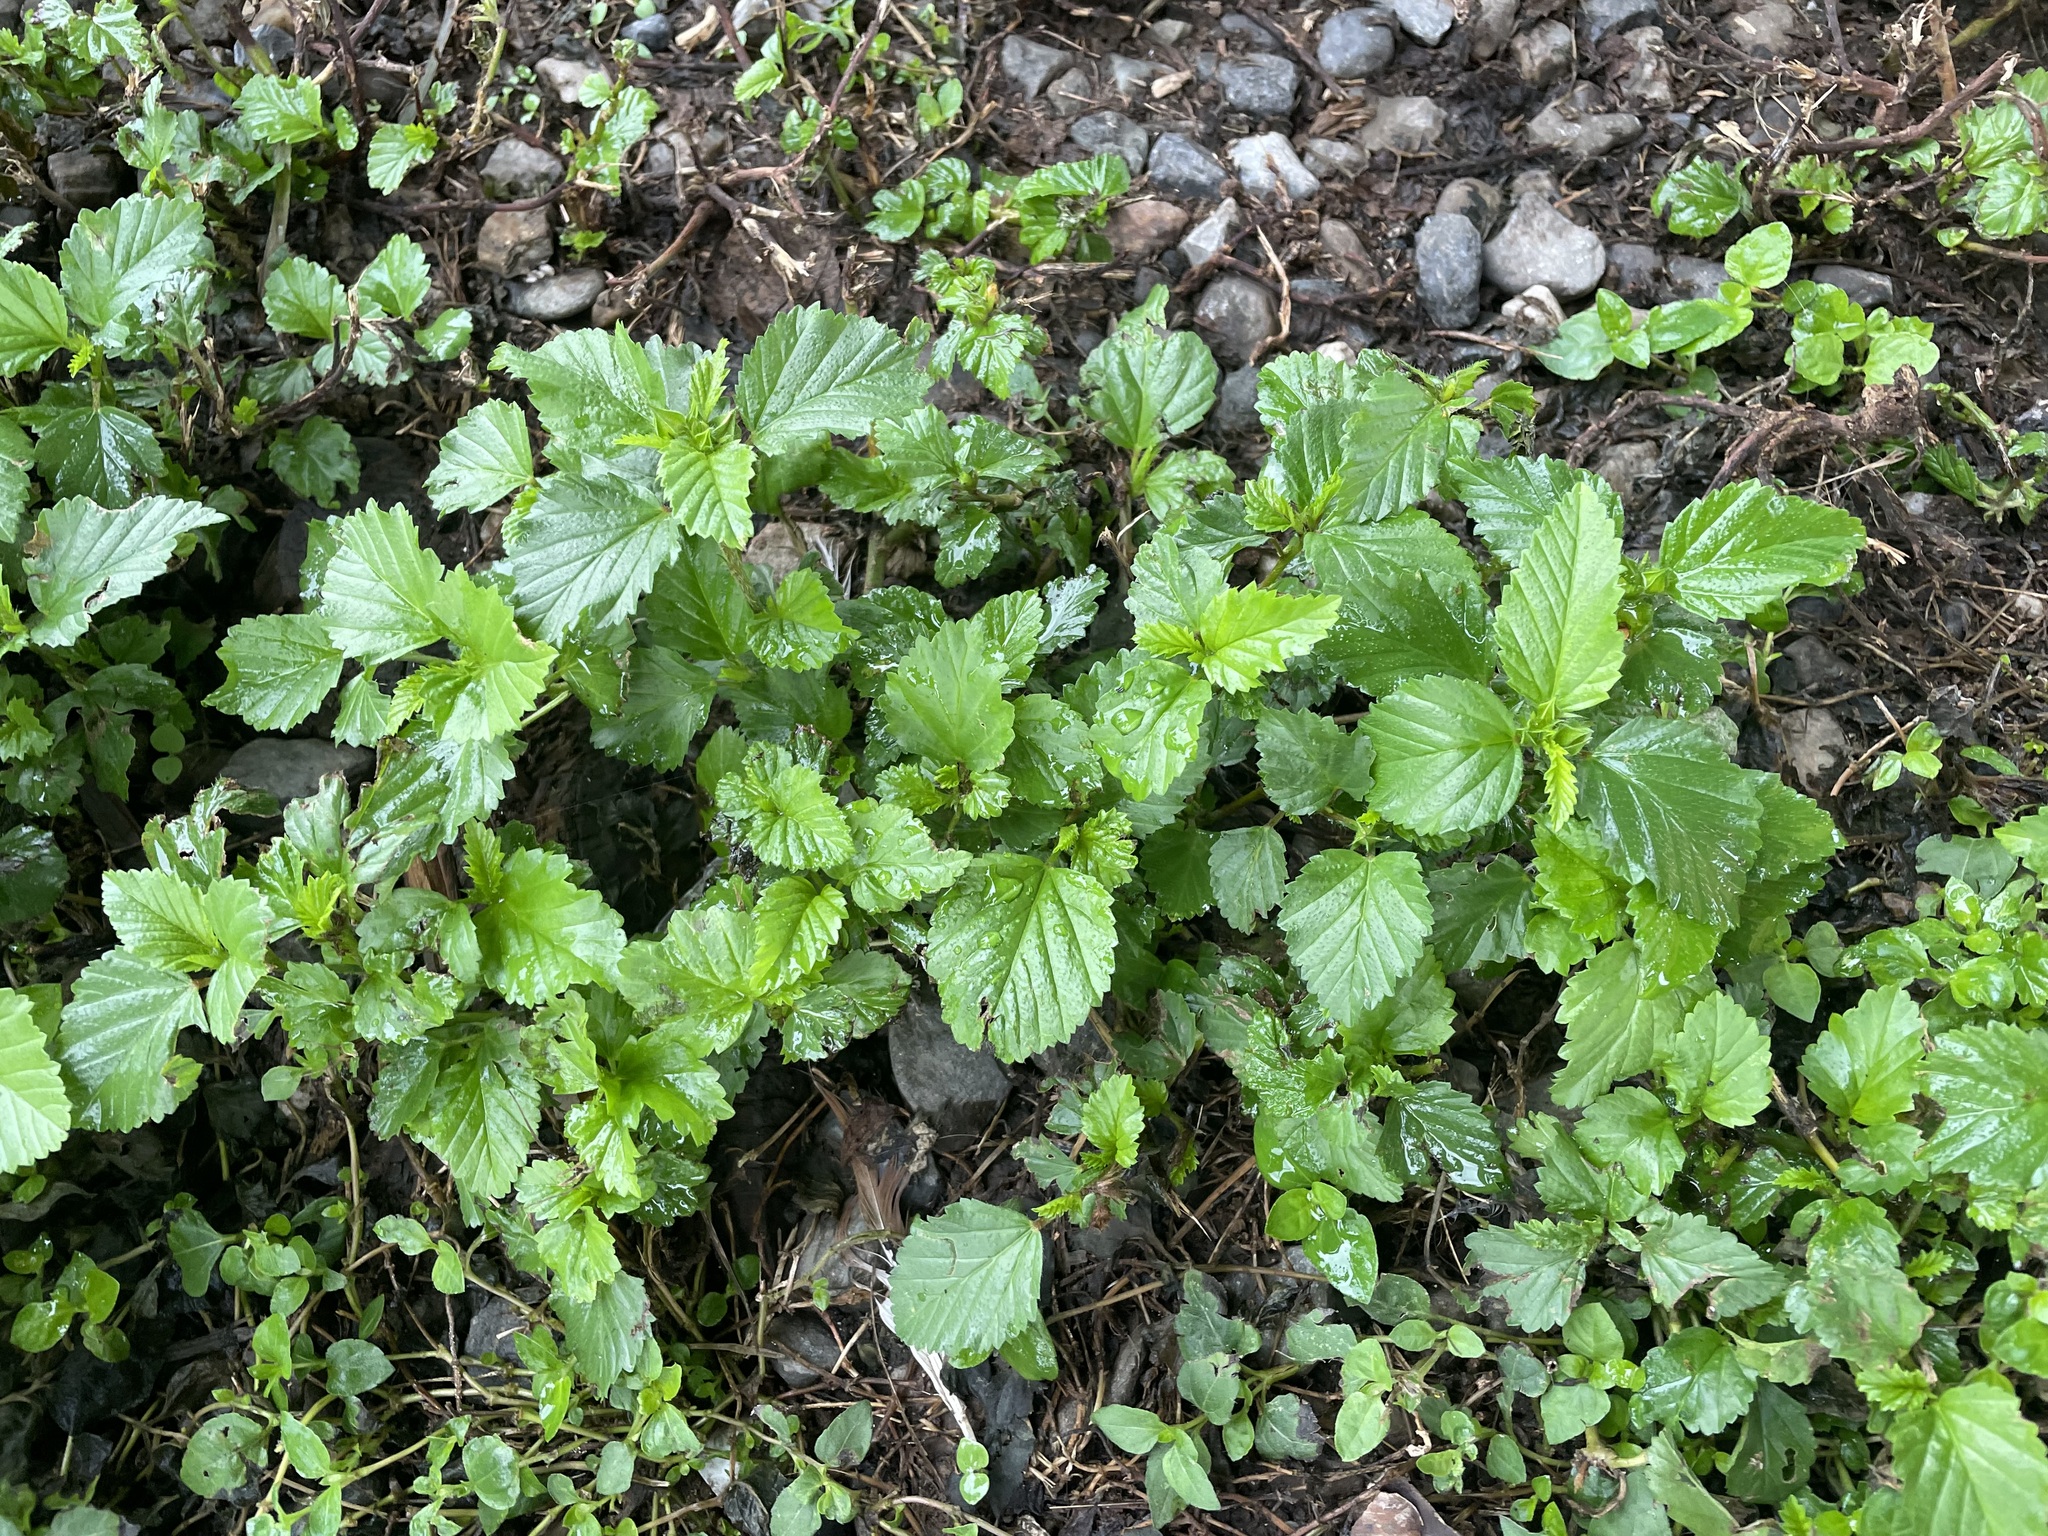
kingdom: Plantae
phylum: Tracheophyta
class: Magnoliopsida
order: Malvales
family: Malvaceae
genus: Malvastrum
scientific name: Malvastrum coromandelianum
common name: Threelobe false mallow
